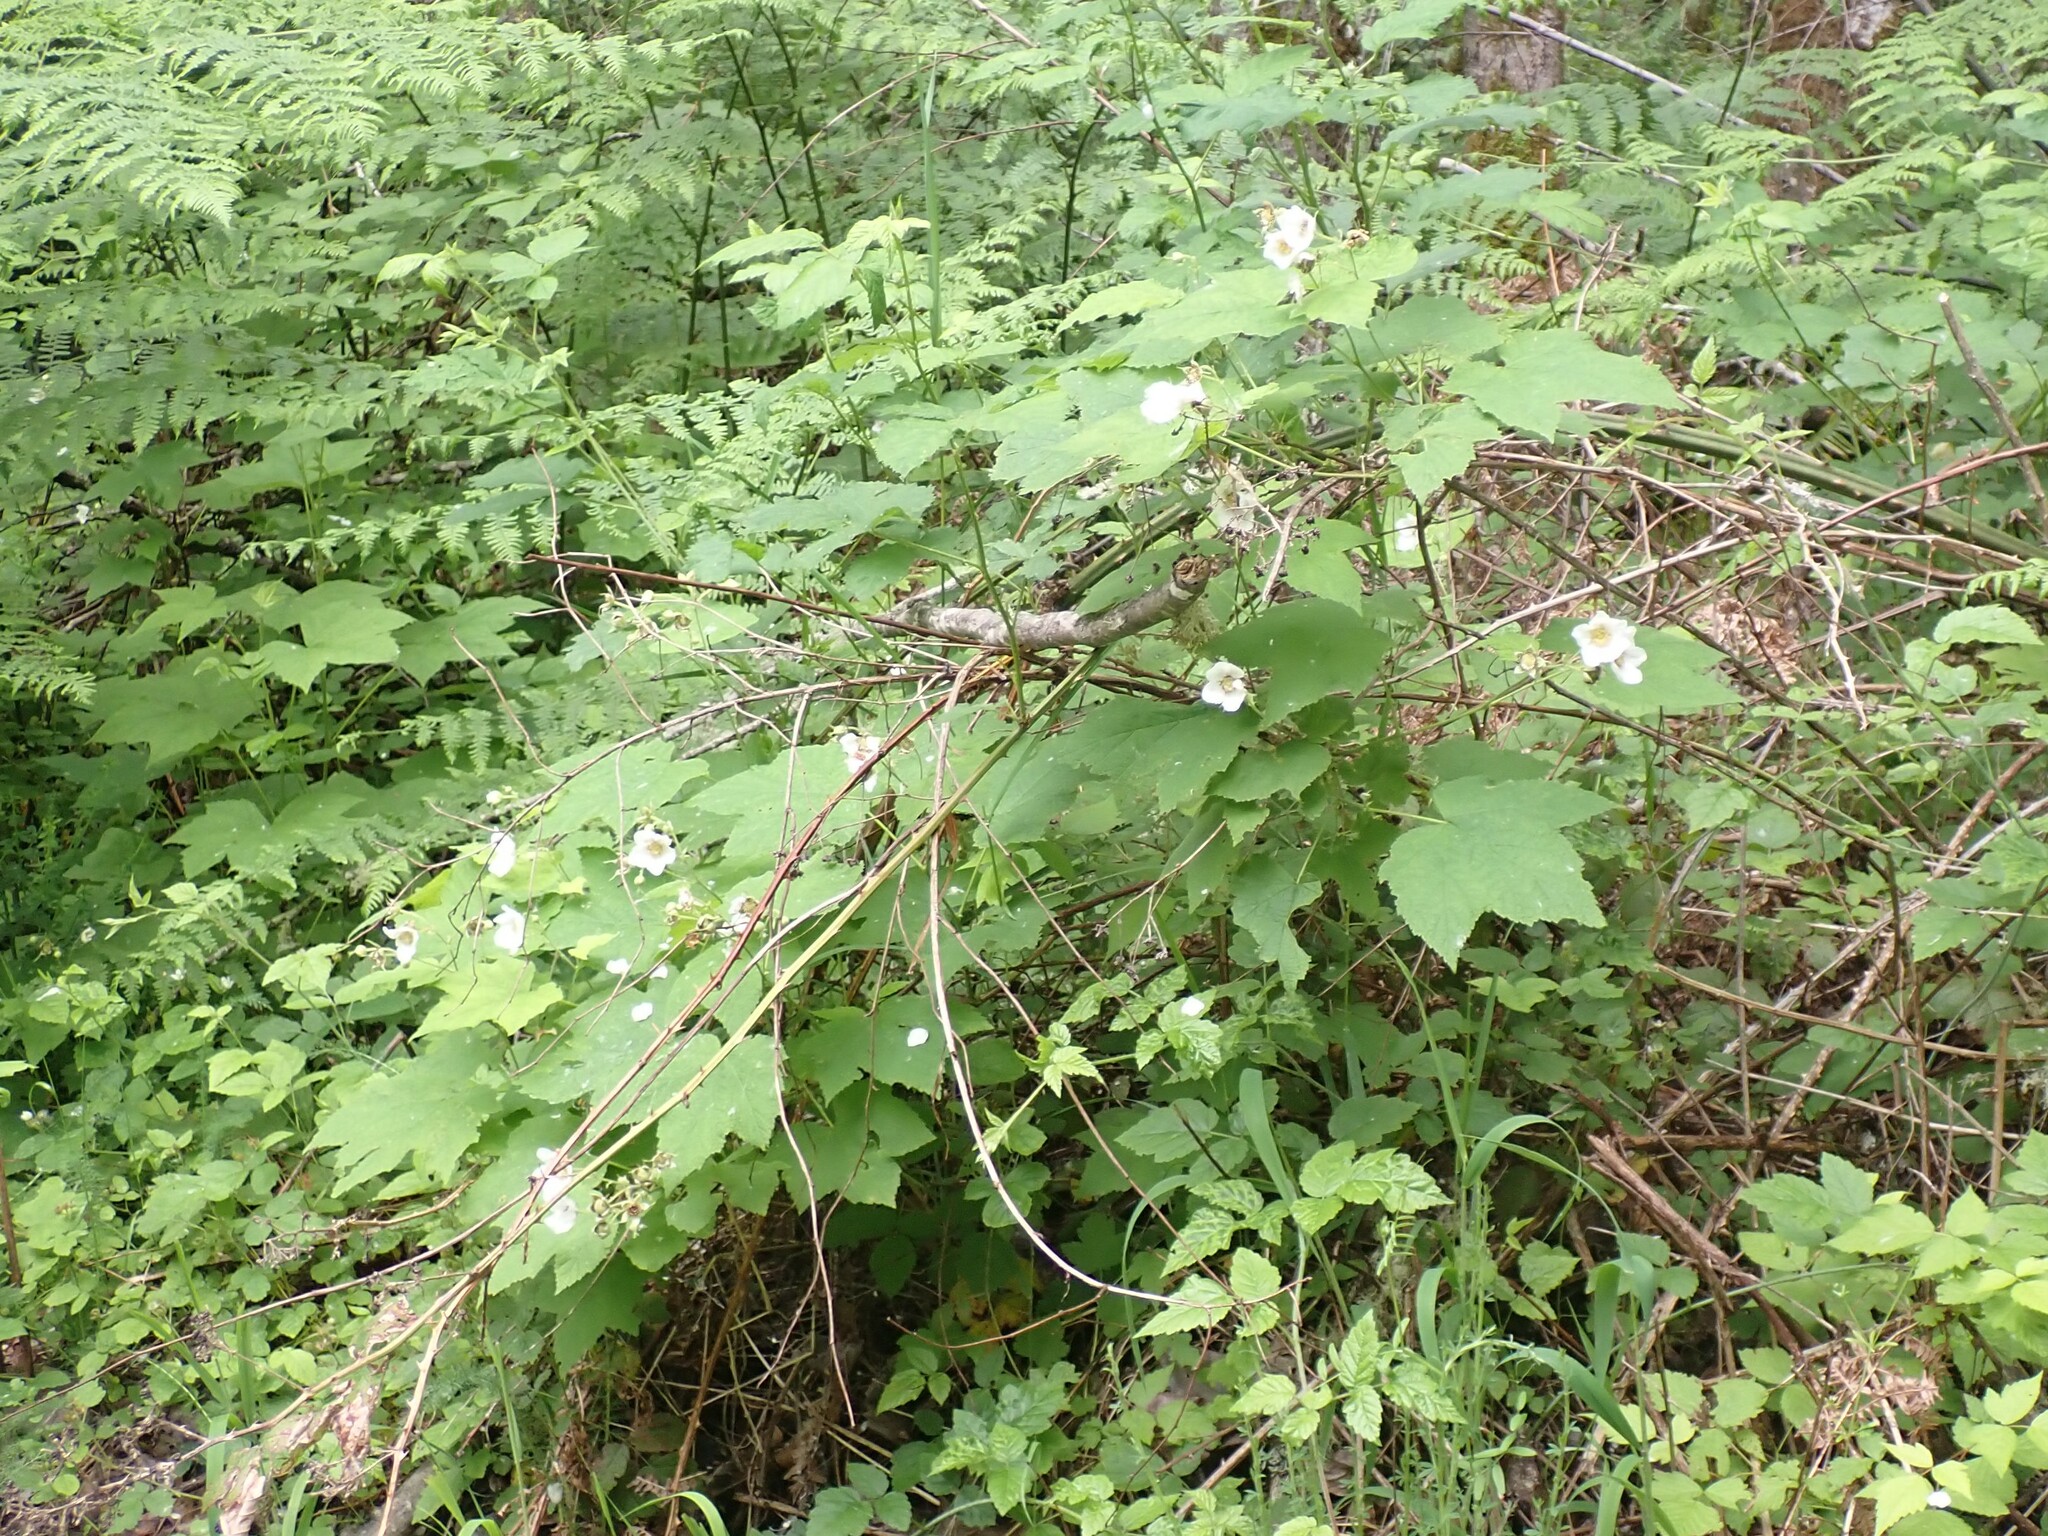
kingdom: Plantae
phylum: Tracheophyta
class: Magnoliopsida
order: Rosales
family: Rosaceae
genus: Rubus
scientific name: Rubus parviflorus
